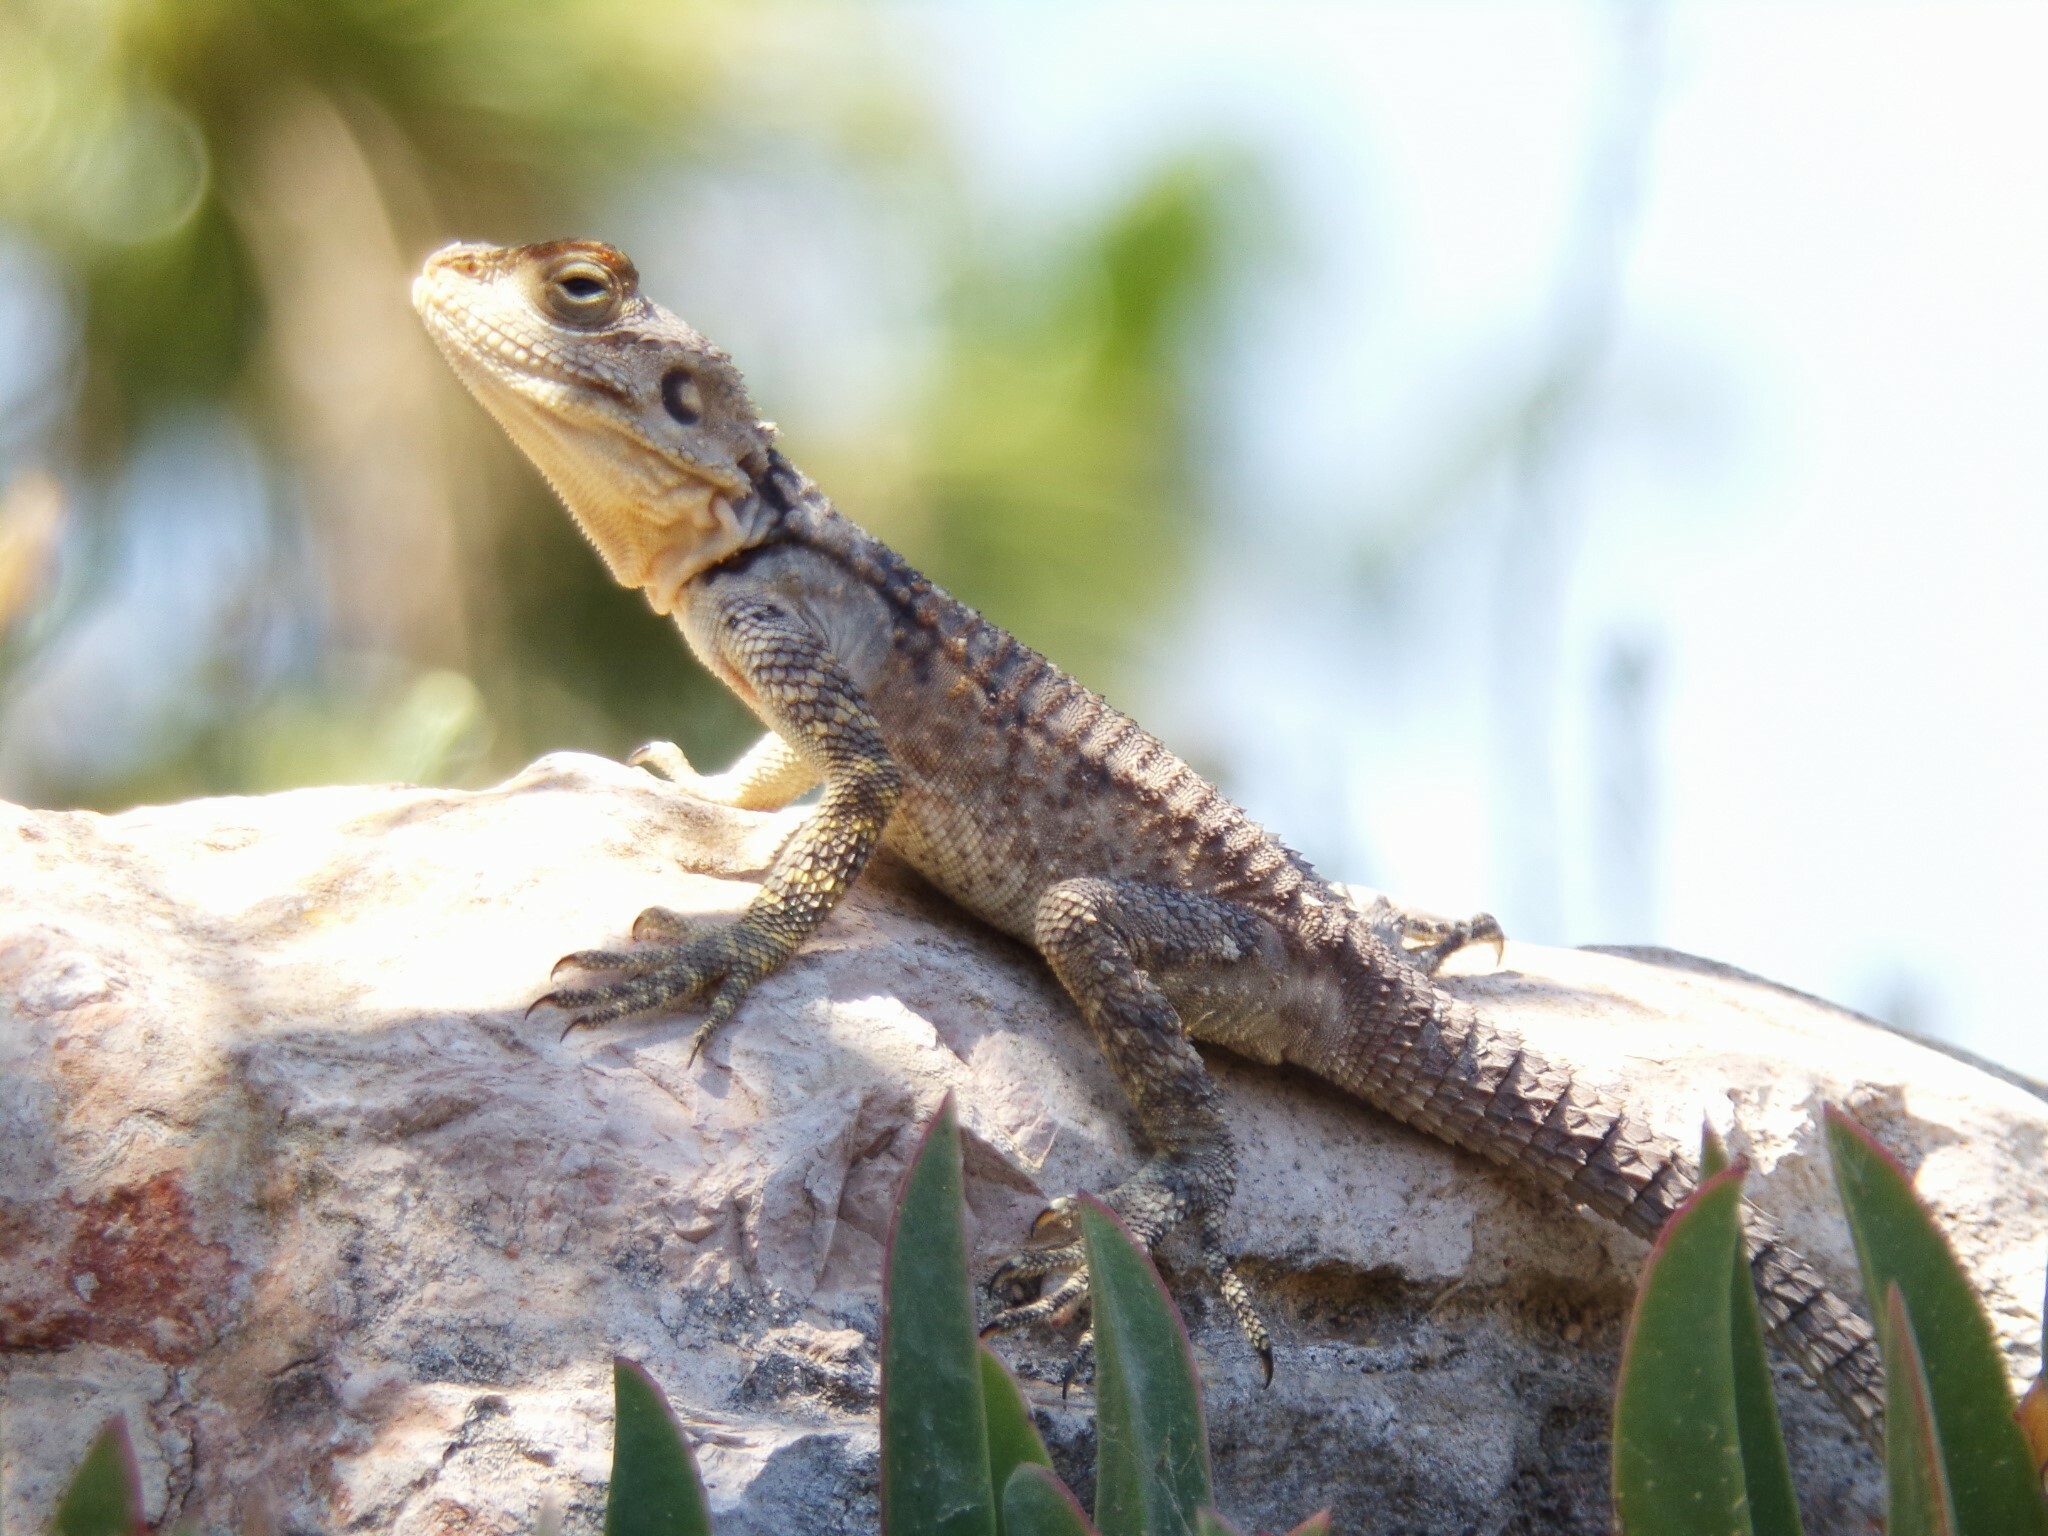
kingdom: Animalia
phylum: Chordata
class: Squamata
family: Agamidae
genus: Laudakia
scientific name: Laudakia
